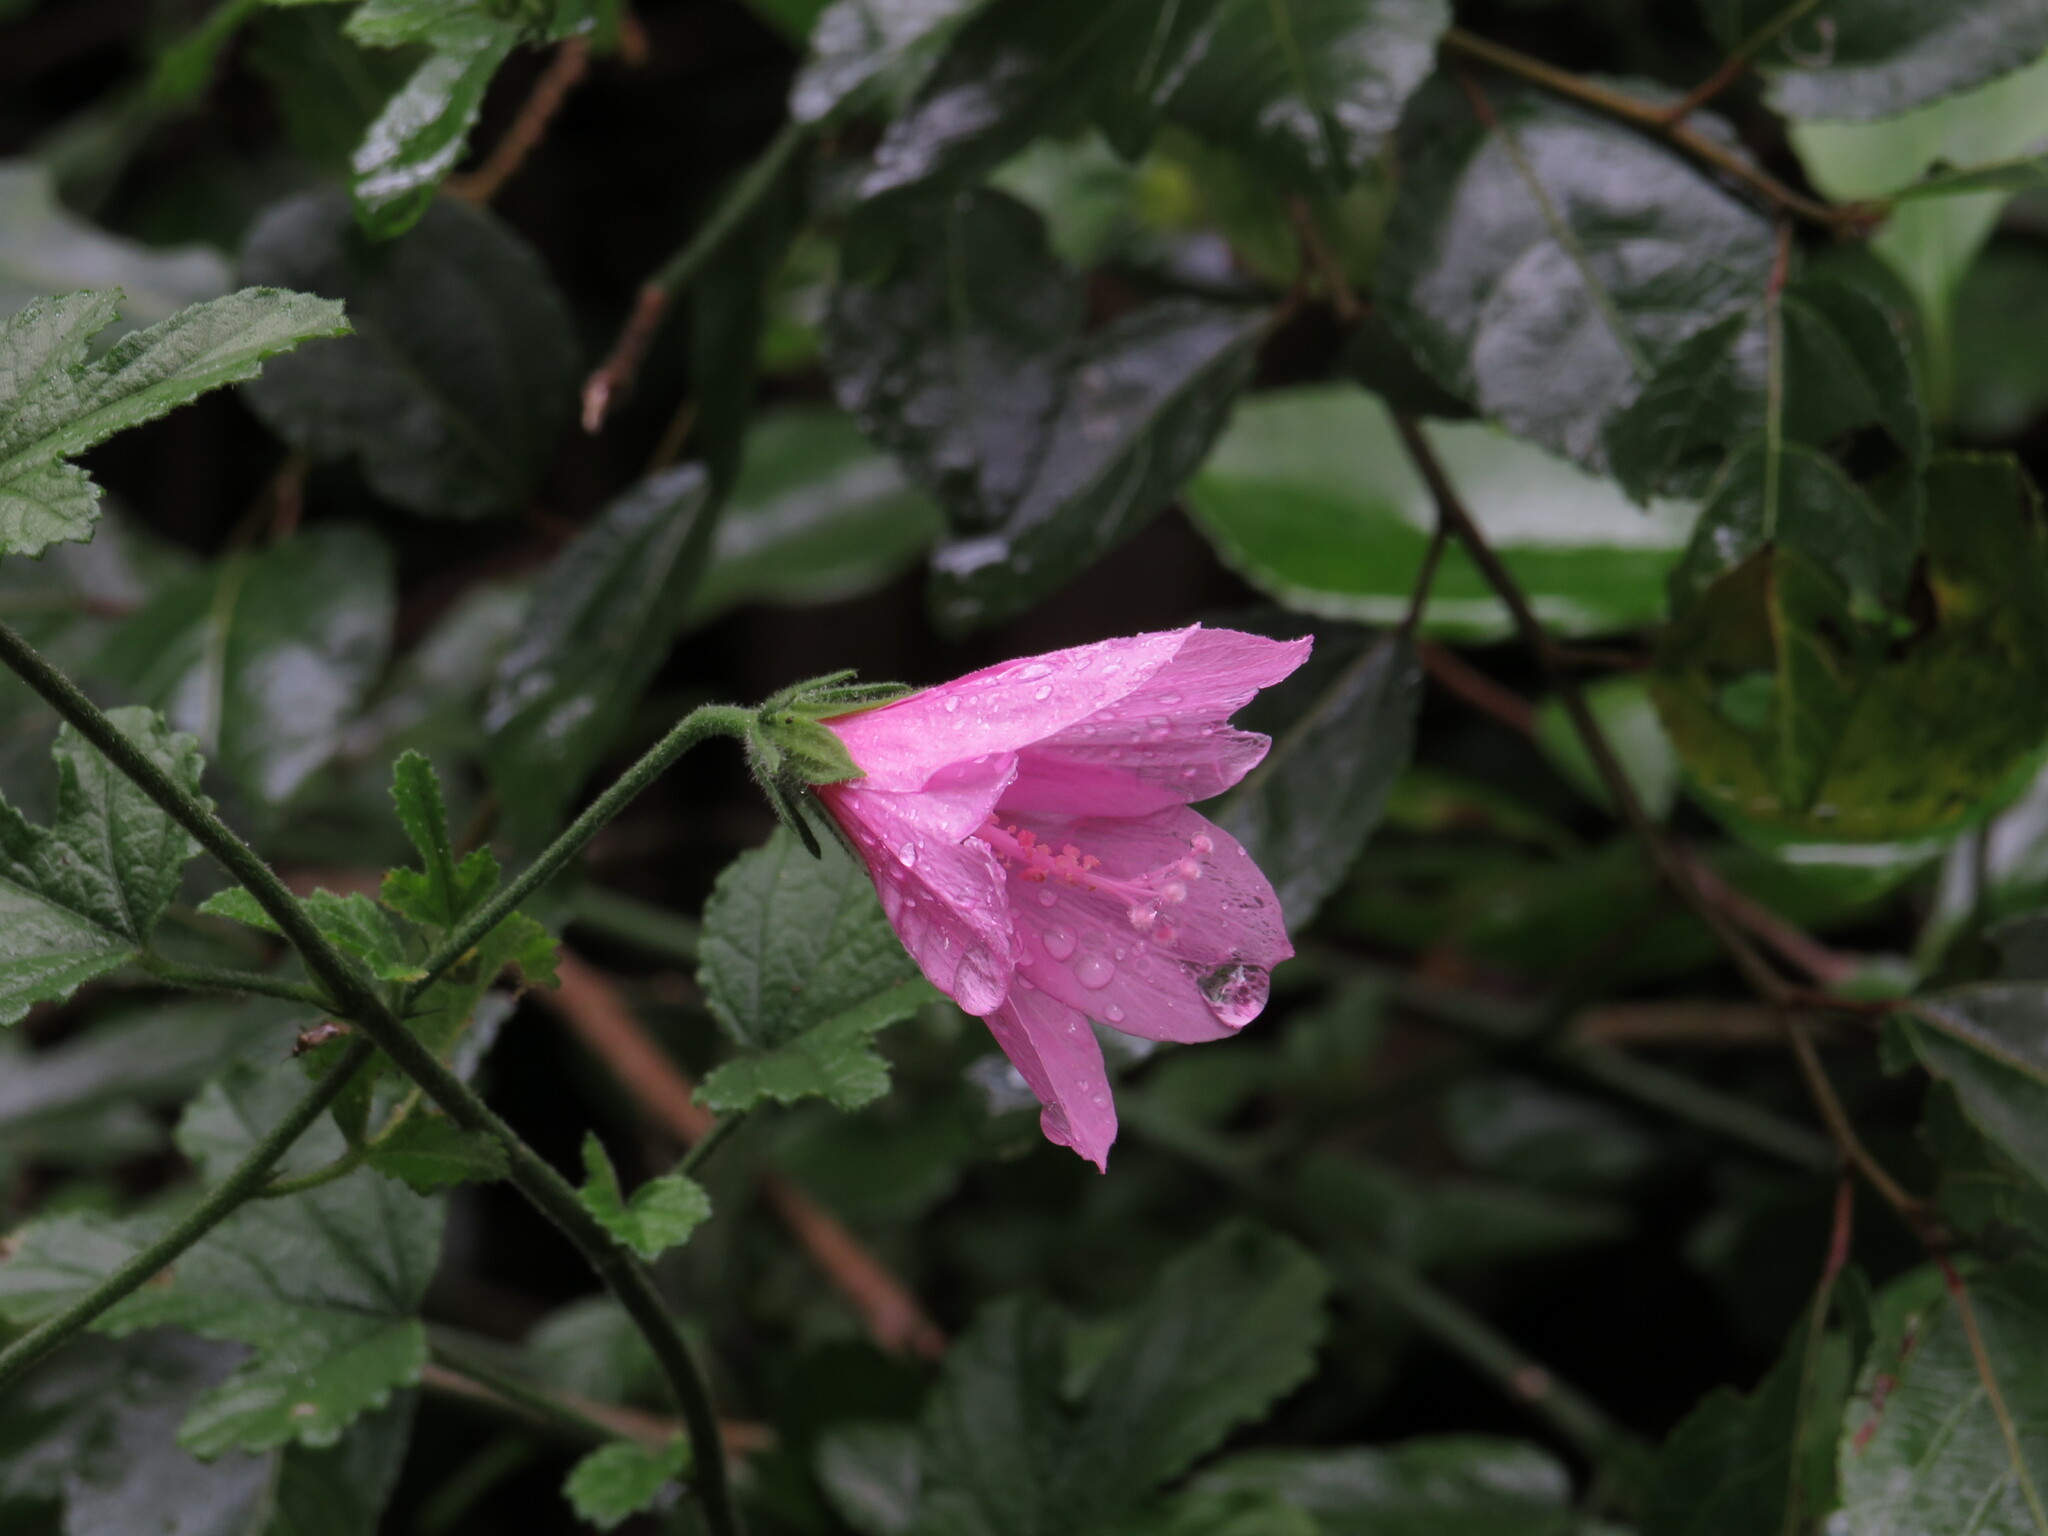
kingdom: Plantae
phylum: Tracheophyta
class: Magnoliopsida
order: Malvales
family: Malvaceae
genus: Hibiscus
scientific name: Hibiscus pedunculatus
